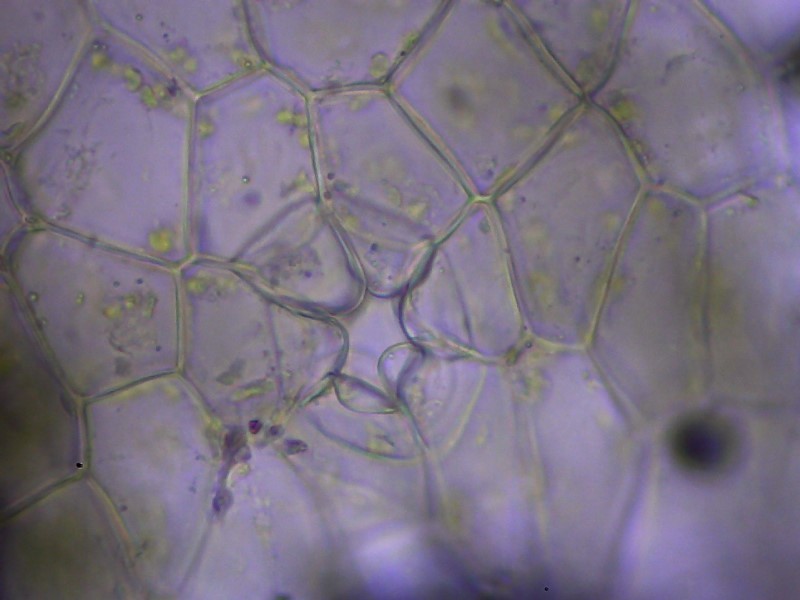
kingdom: Plantae
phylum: Marchantiophyta
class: Marchantiopsida
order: Marchantiales
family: Ricciaceae
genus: Ricciocarpos
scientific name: Ricciocarpos natans
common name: Purple-fringed liverwort
